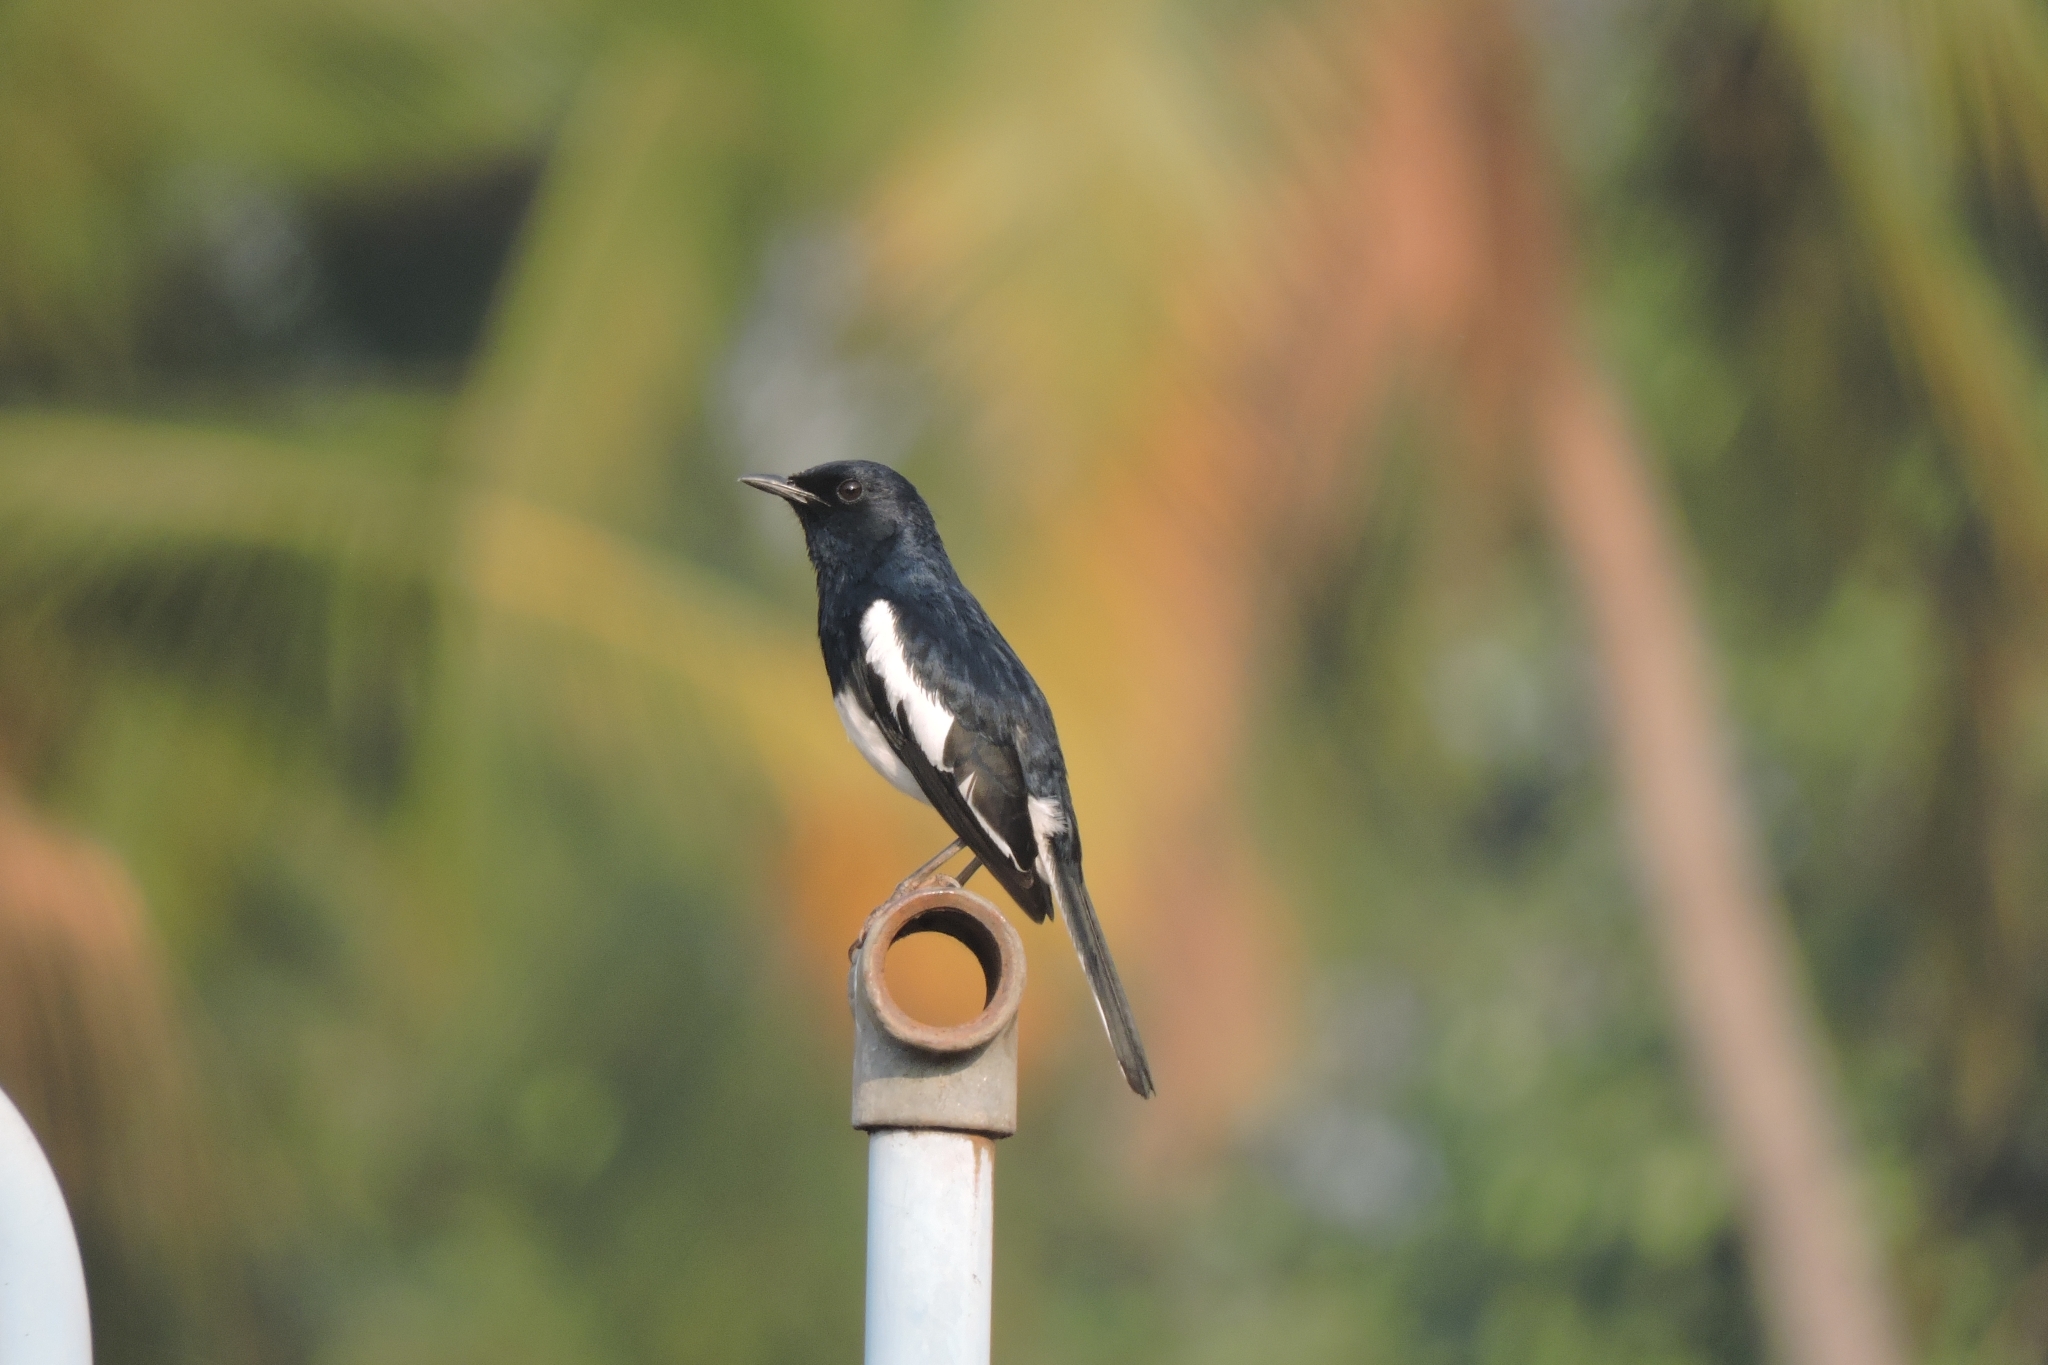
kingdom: Animalia
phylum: Chordata
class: Aves
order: Passeriformes
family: Muscicapidae
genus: Copsychus
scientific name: Copsychus saularis
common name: Oriental magpie-robin
